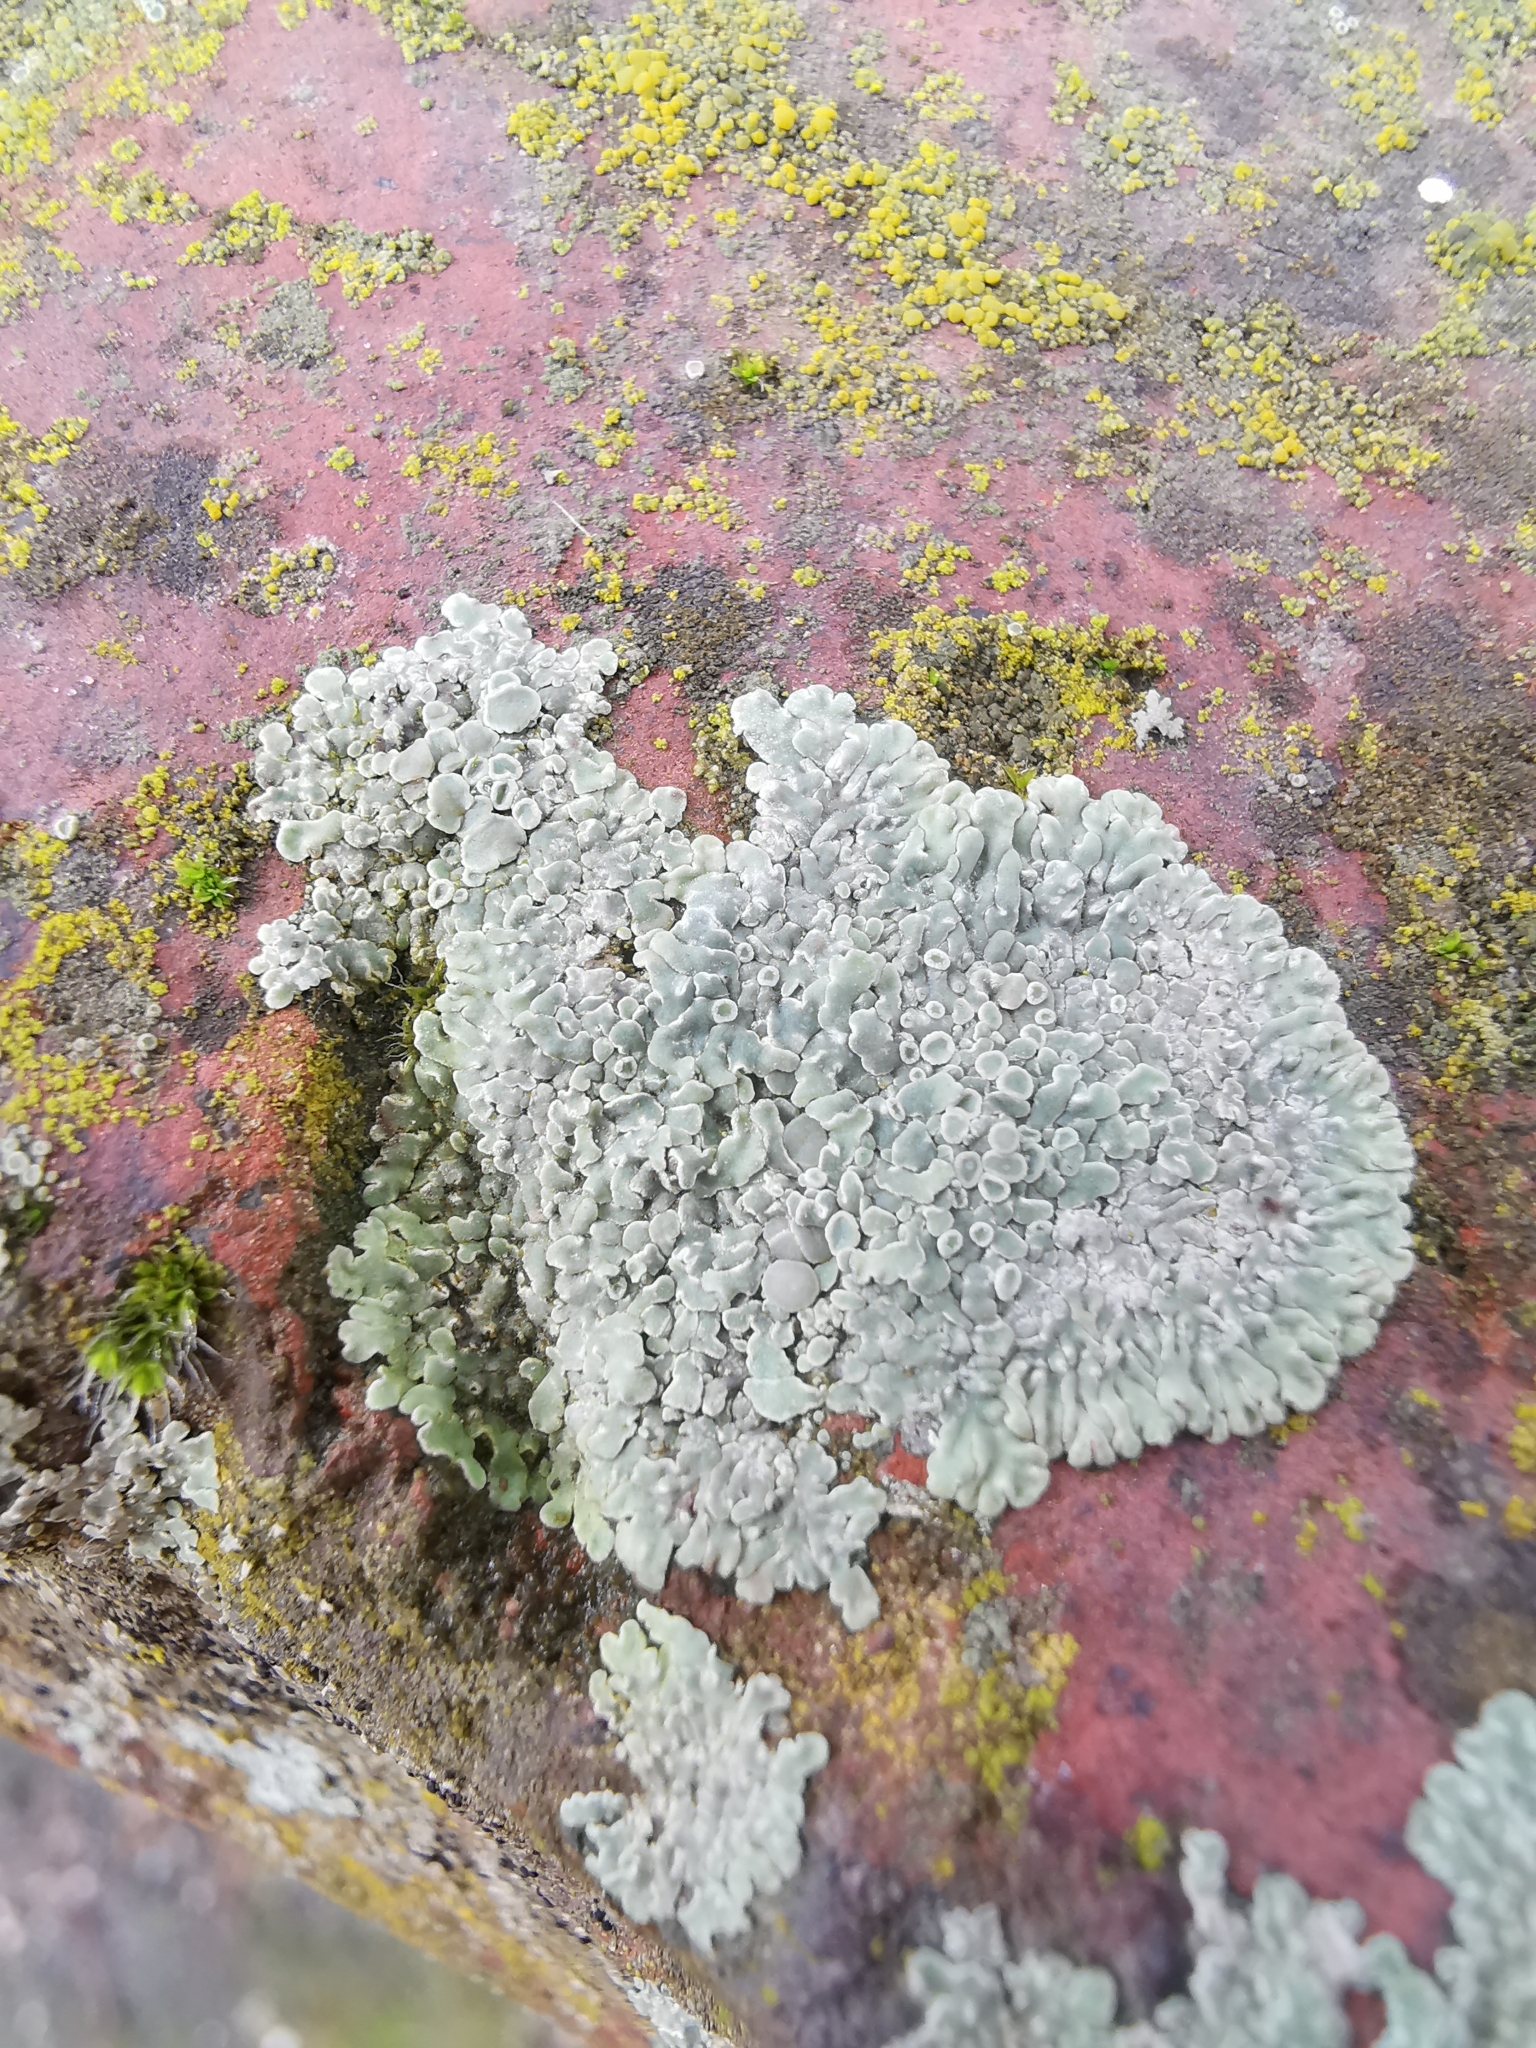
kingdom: Fungi
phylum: Ascomycota
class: Lecanoromycetes
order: Lecanorales
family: Lecanoraceae
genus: Protoparmeliopsis
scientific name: Protoparmeliopsis muralis
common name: Stonewall rim lichen
